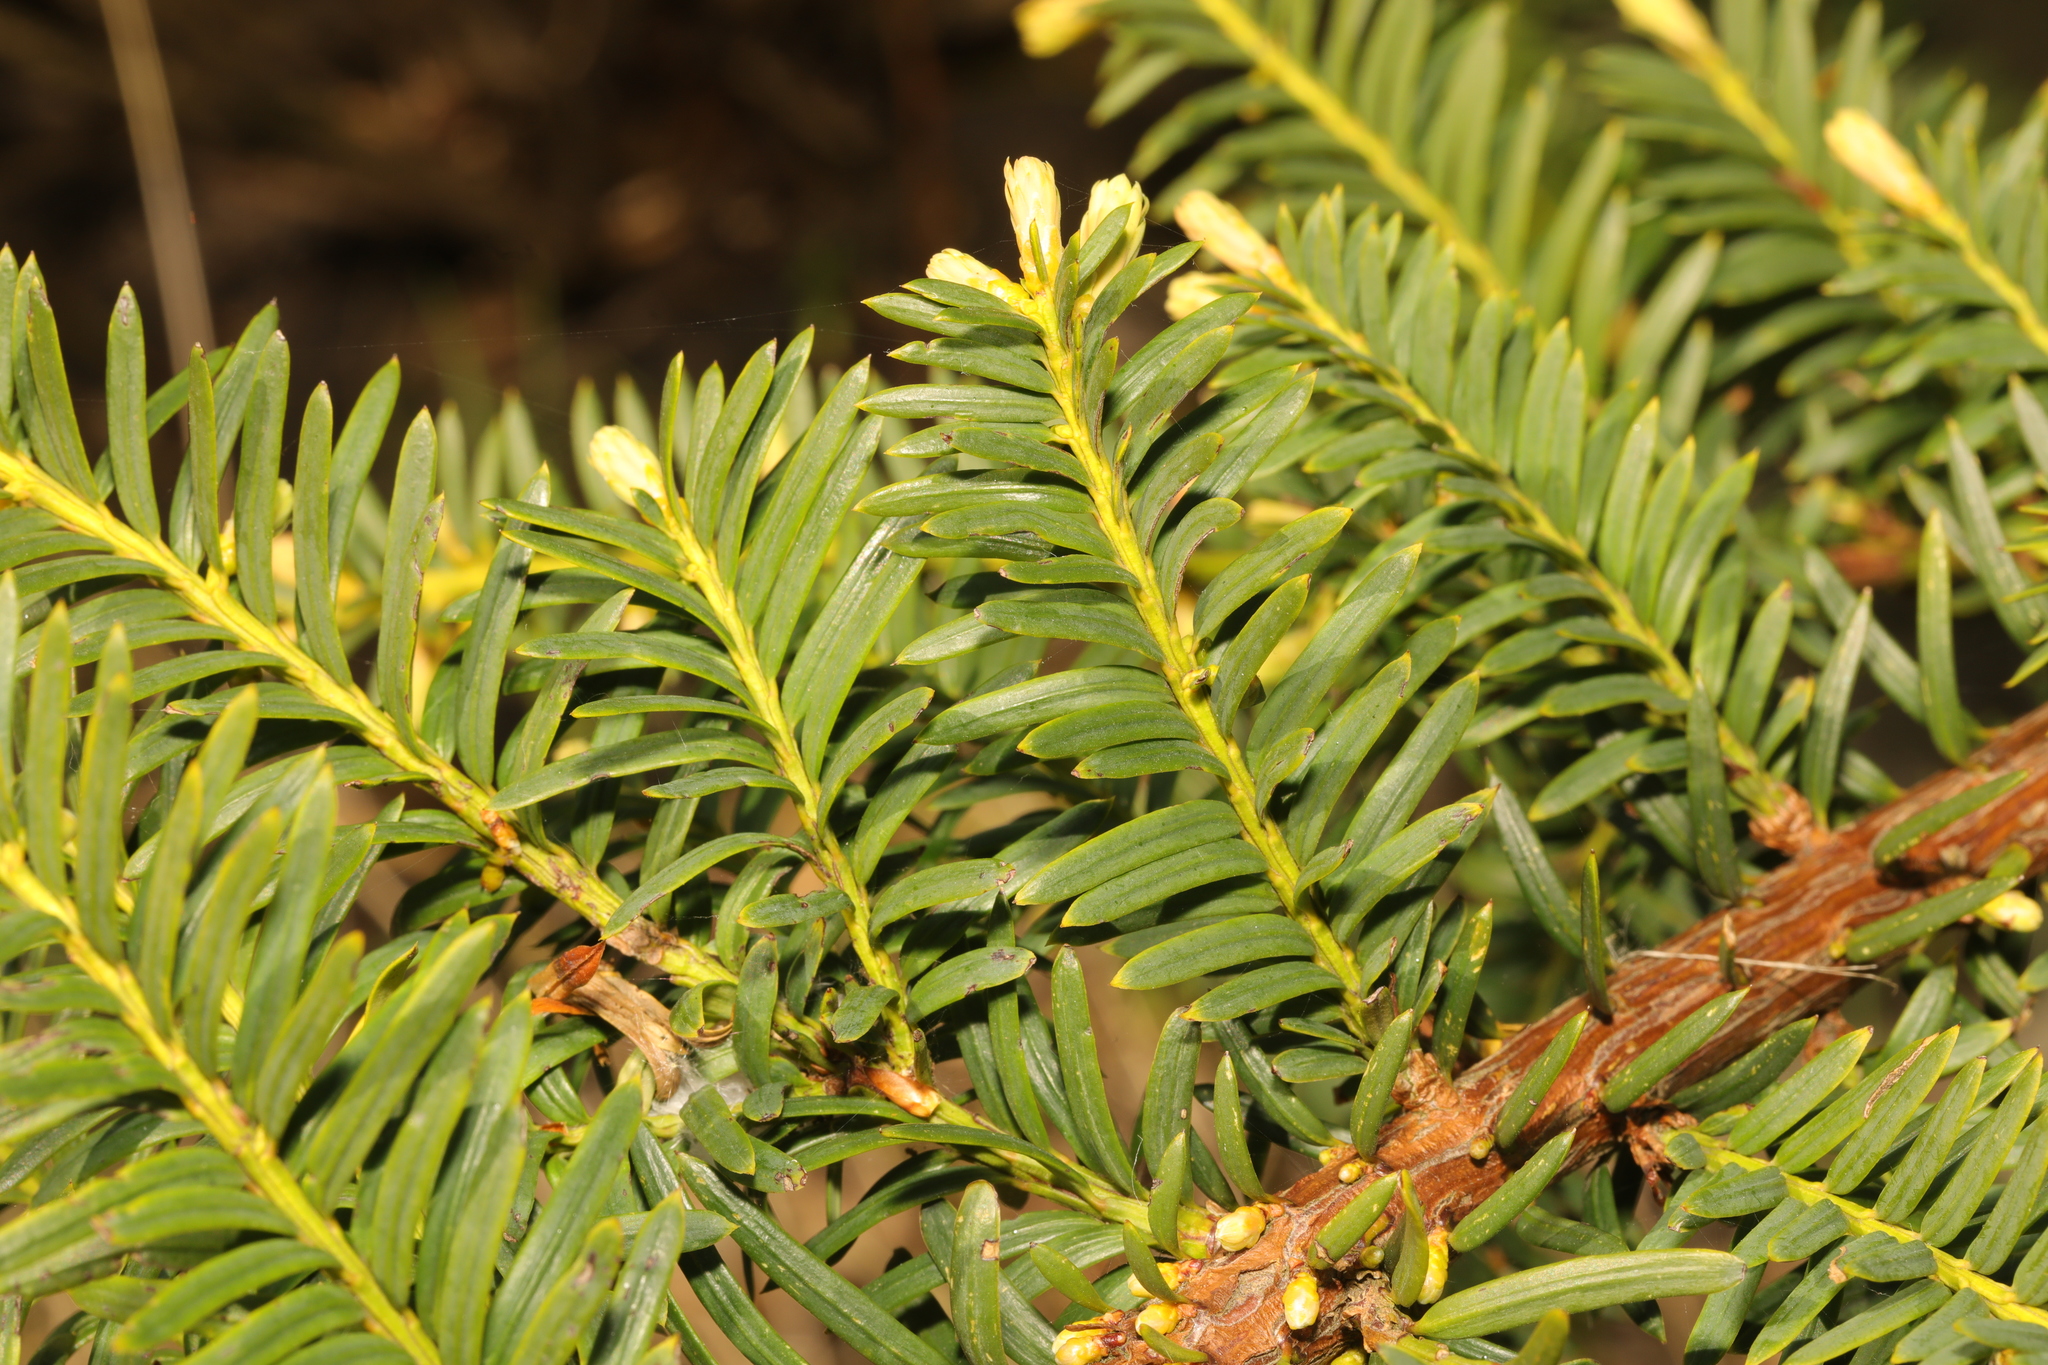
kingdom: Plantae
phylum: Tracheophyta
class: Pinopsida
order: Pinales
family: Taxaceae
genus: Taxus
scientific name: Taxus baccata
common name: Yew
